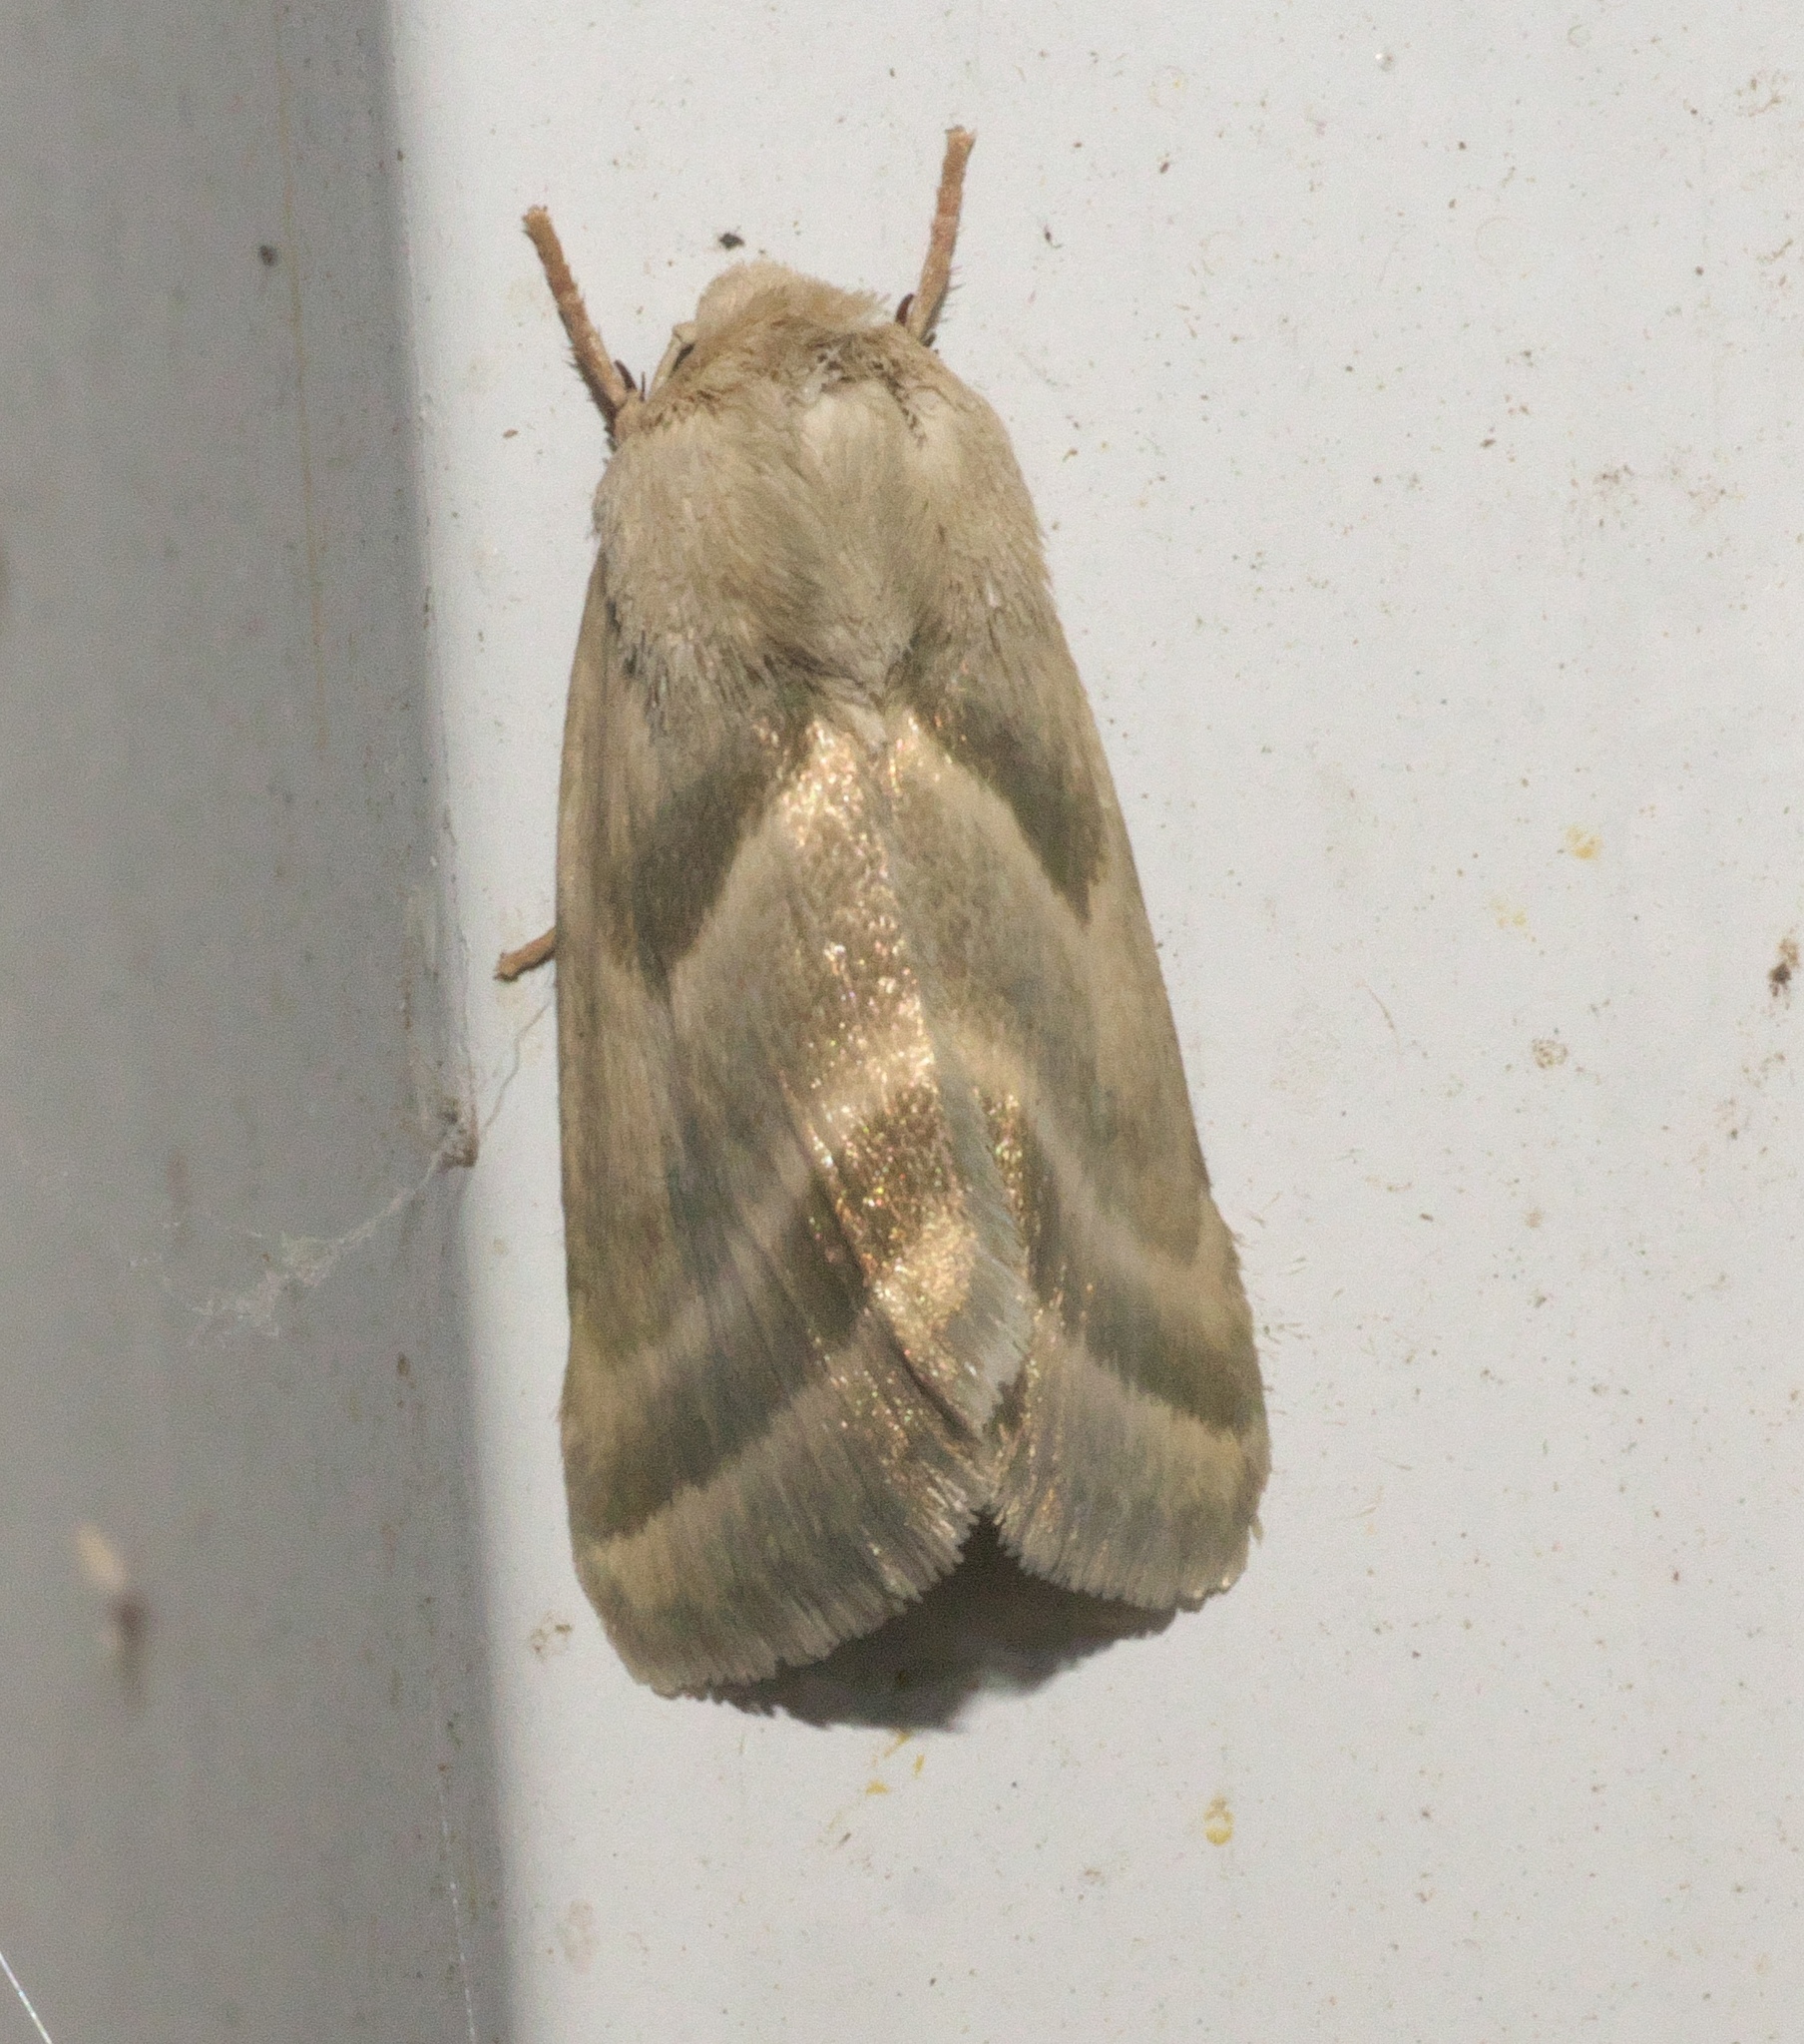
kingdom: Animalia
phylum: Arthropoda
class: Insecta
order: Lepidoptera
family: Noctuidae
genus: Schinia
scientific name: Schinia trifascia
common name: Three-lined flower moth
